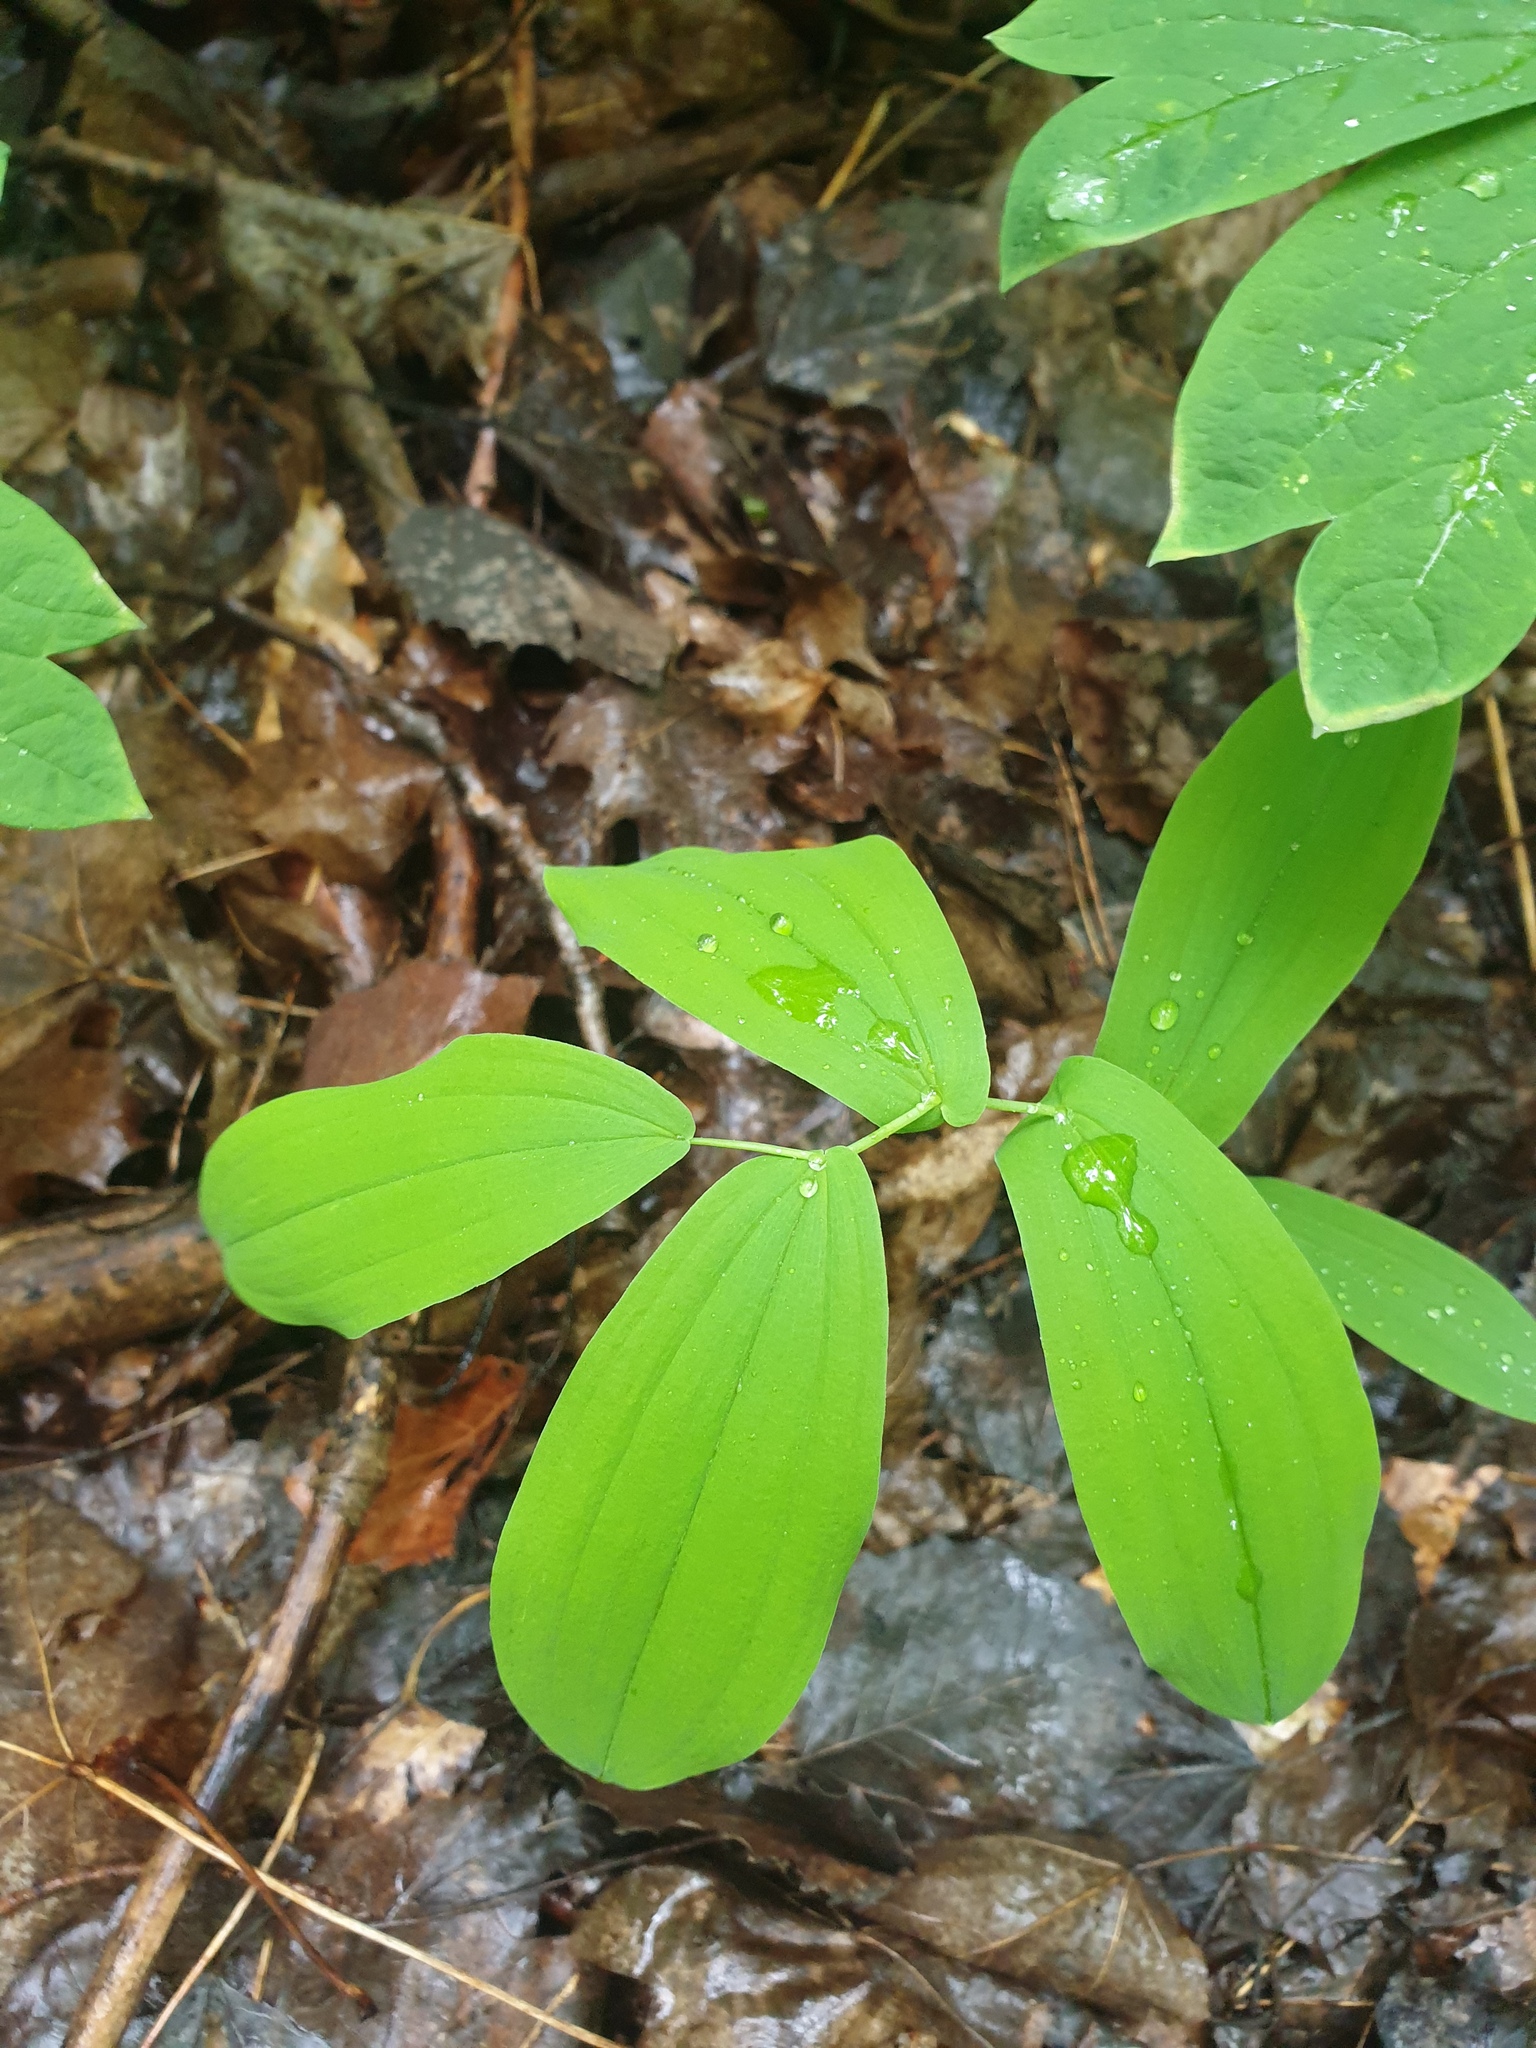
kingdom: Plantae
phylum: Tracheophyta
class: Liliopsida
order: Liliales
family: Colchicaceae
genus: Uvularia
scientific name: Uvularia grandiflora
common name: Bellwort
